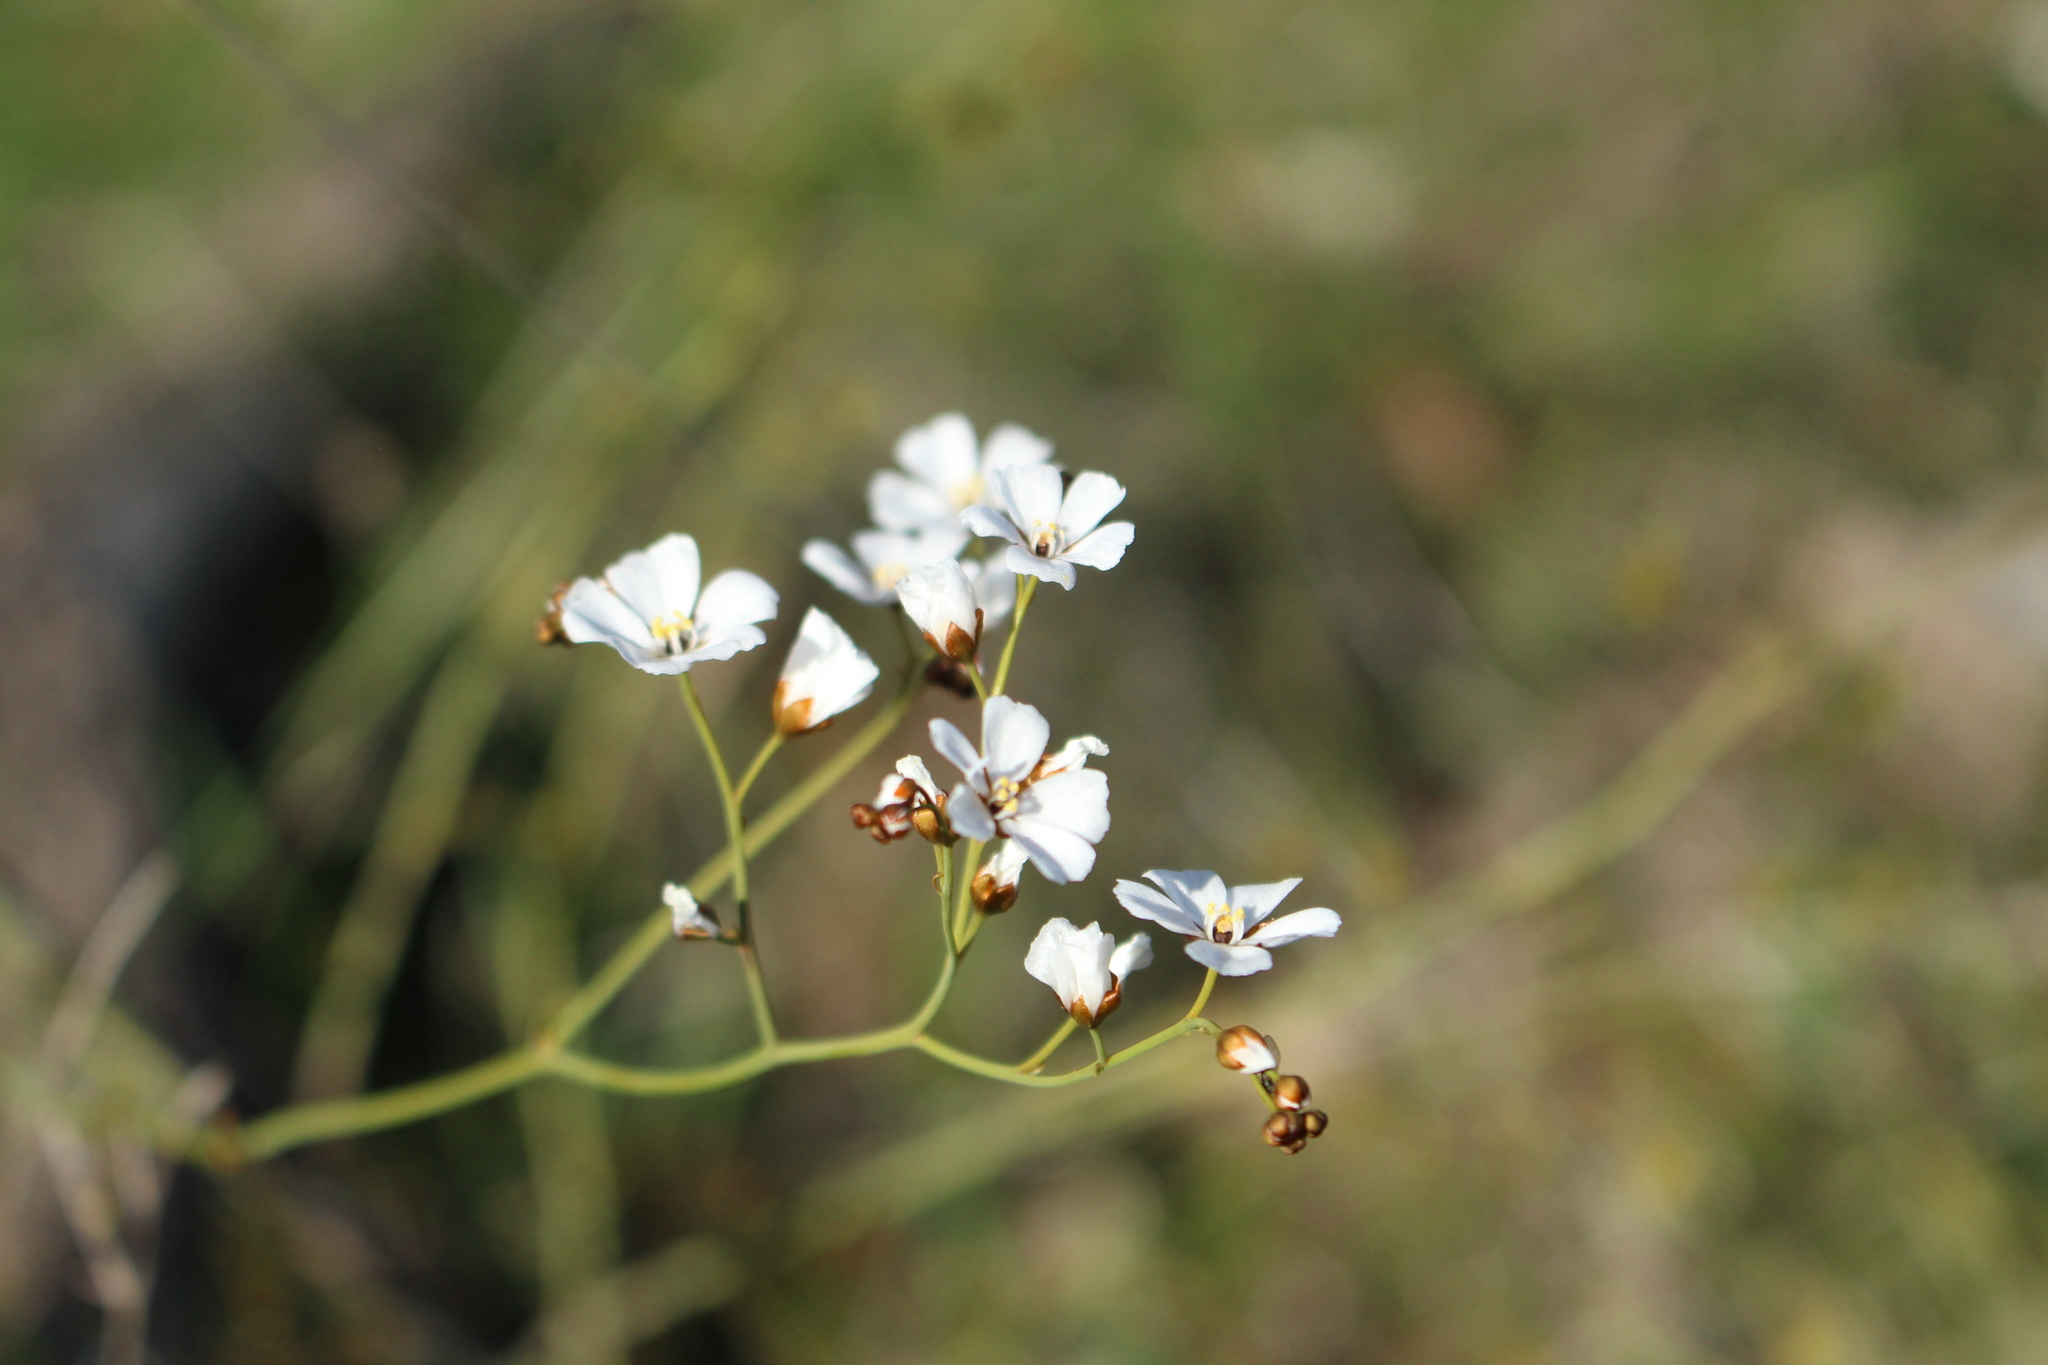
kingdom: Plantae
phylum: Tracheophyta
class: Magnoliopsida
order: Caryophyllales
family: Droseraceae
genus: Drosera
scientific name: Drosera gigantea
